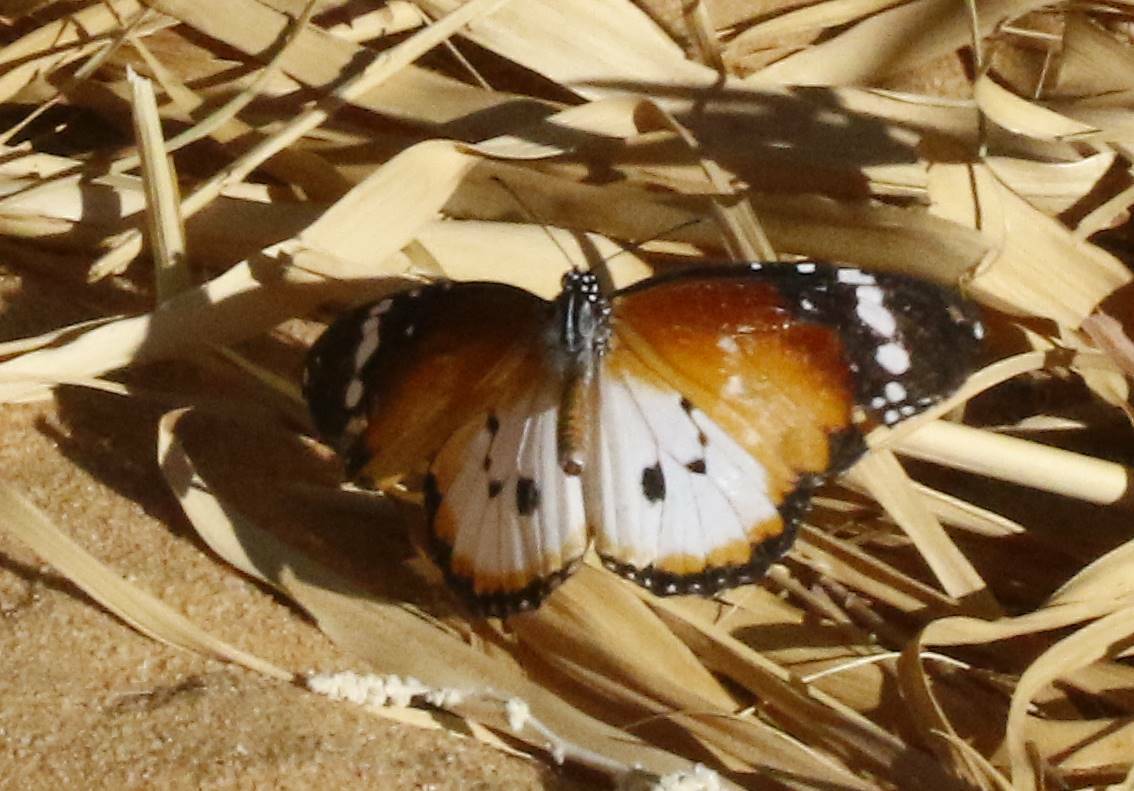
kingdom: Animalia
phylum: Arthropoda
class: Insecta
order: Lepidoptera
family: Nymphalidae
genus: Danaus
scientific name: Danaus chrysippus
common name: Plain tiger
